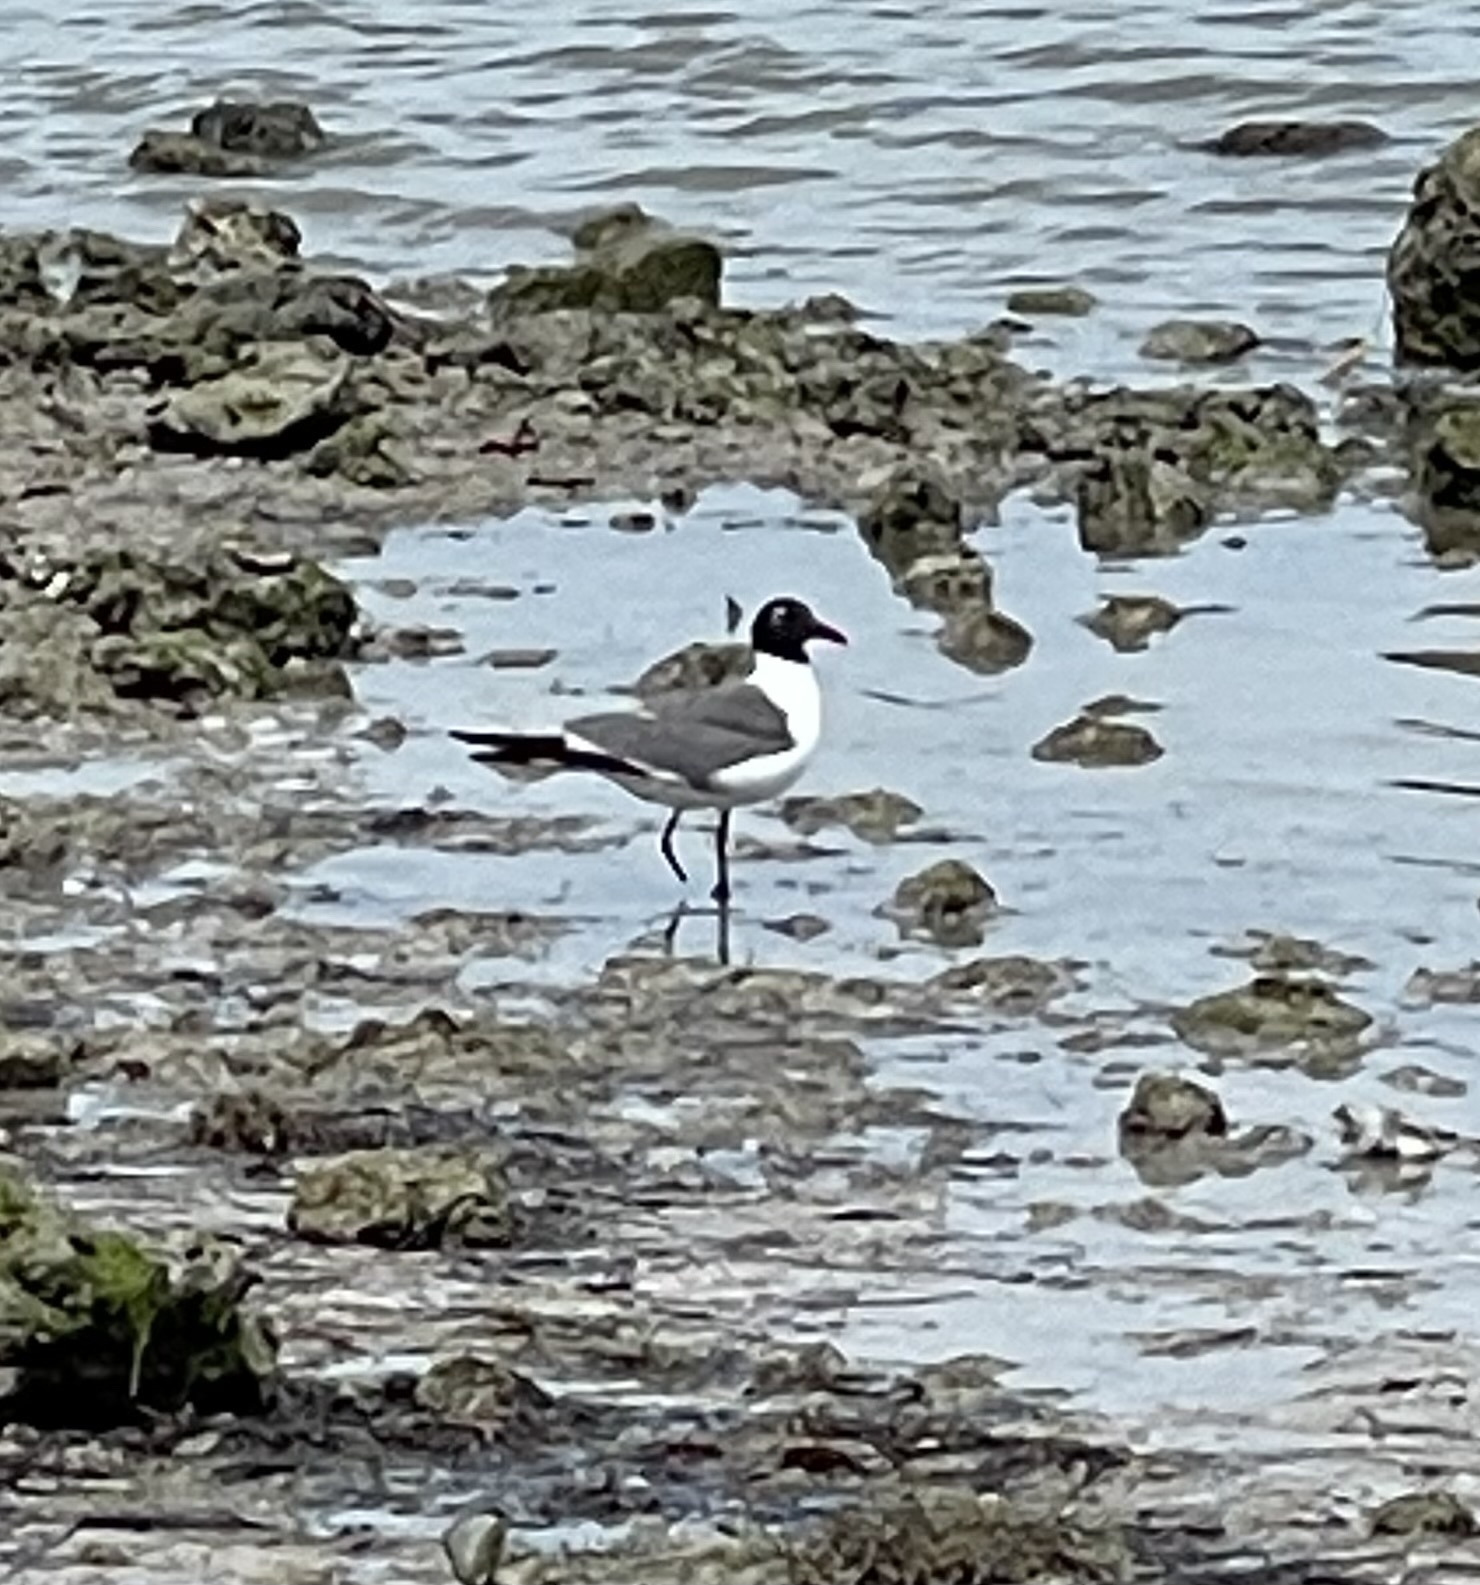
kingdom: Animalia
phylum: Chordata
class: Aves
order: Charadriiformes
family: Laridae
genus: Leucophaeus
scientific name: Leucophaeus atricilla
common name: Laughing gull
